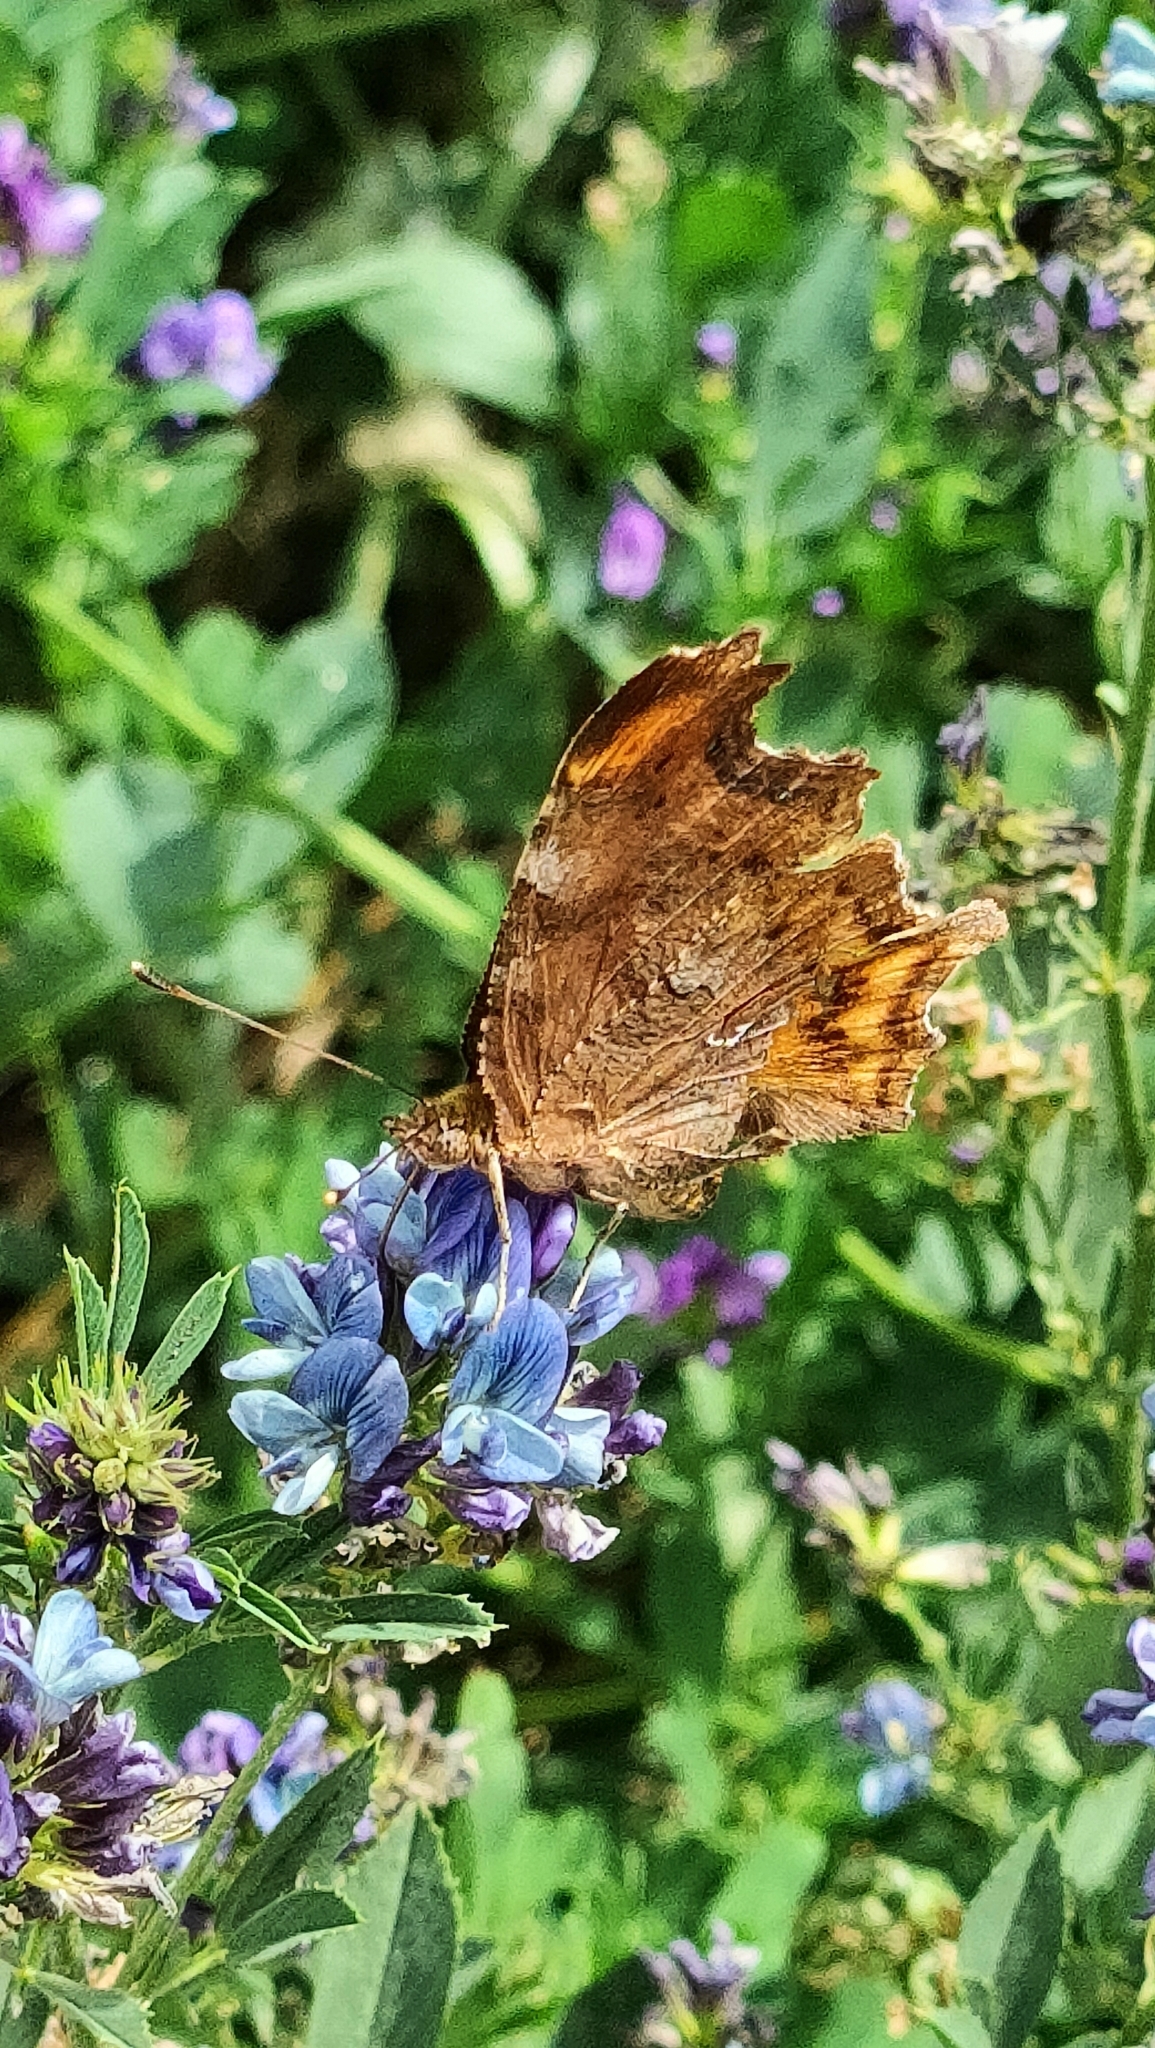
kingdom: Animalia
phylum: Arthropoda
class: Insecta
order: Lepidoptera
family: Nymphalidae
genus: Polygonia
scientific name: Polygonia c-album
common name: Comma
